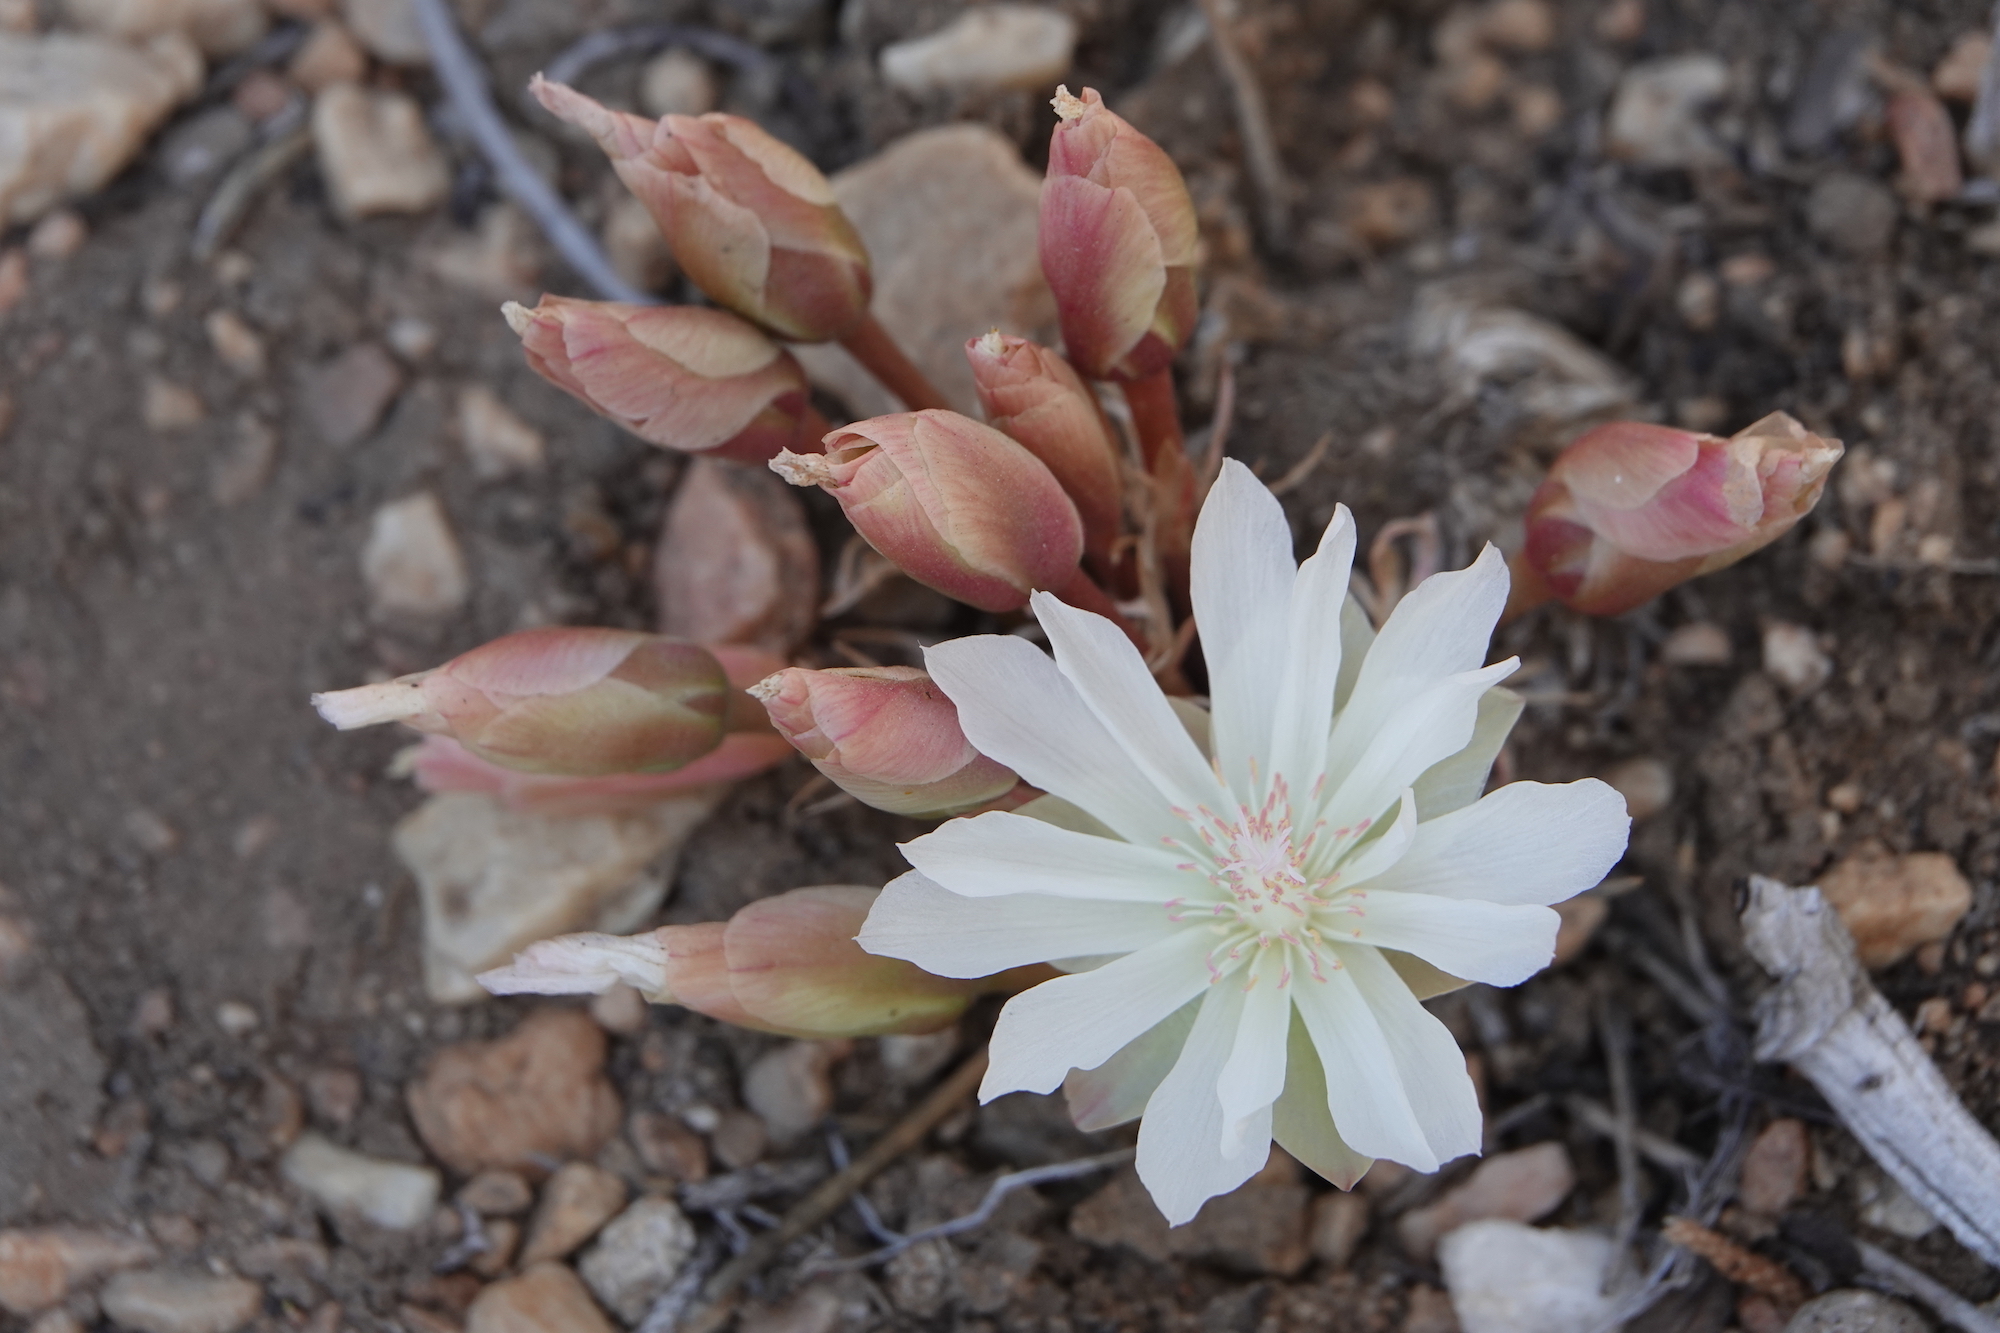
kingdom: Plantae
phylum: Tracheophyta
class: Magnoliopsida
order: Caryophyllales
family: Montiaceae
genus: Lewisia
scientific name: Lewisia rediviva
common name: Bitter-root
